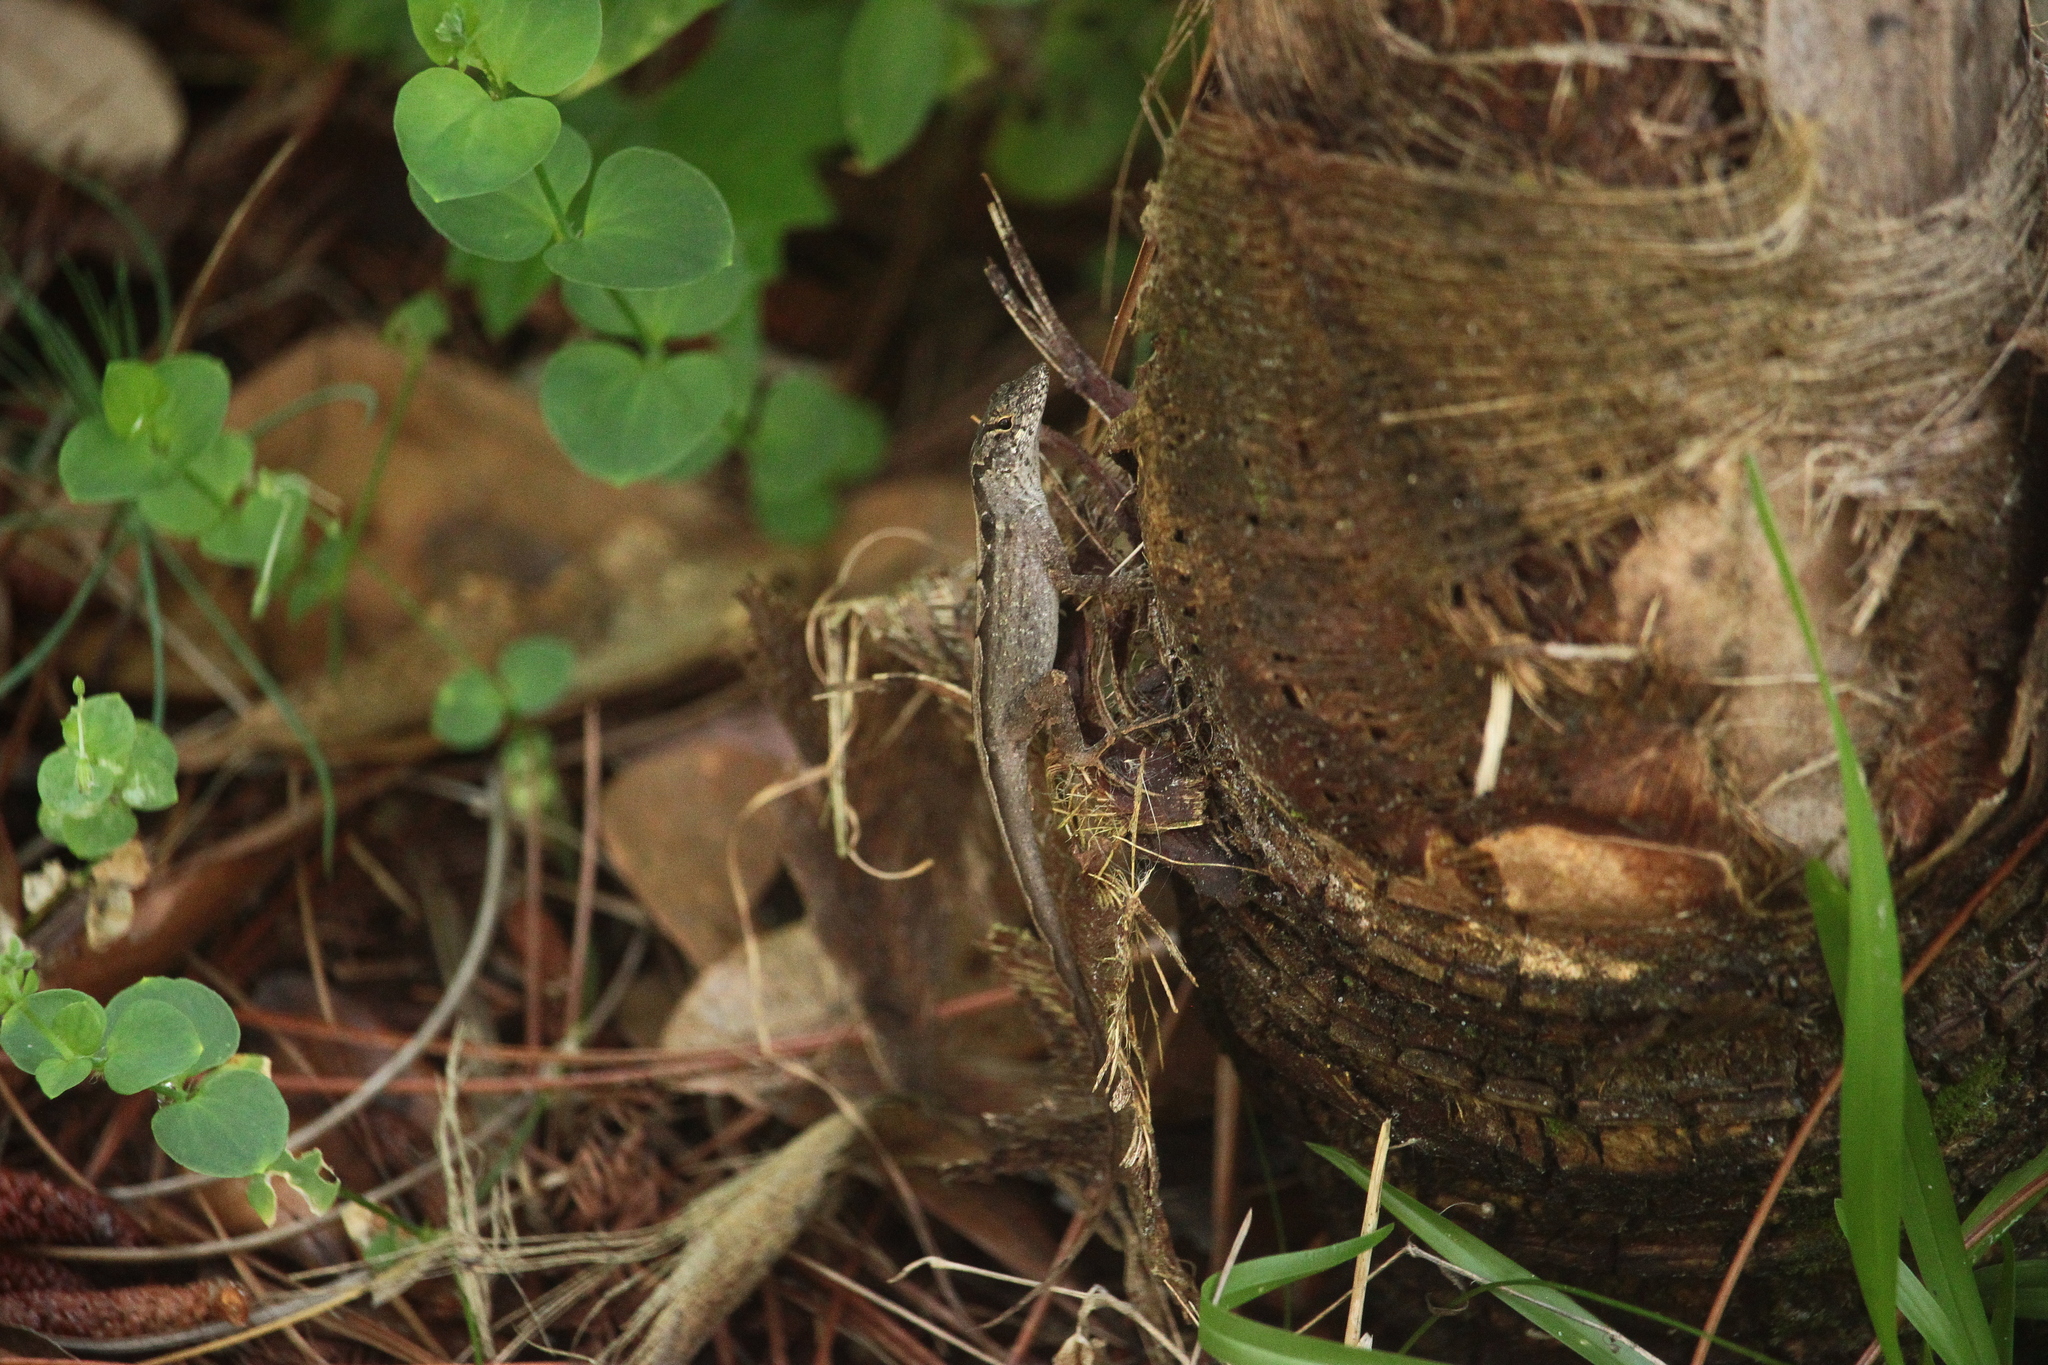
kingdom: Animalia
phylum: Chordata
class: Squamata
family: Dactyloidae
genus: Anolis
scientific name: Anolis sagrei
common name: Brown anole
